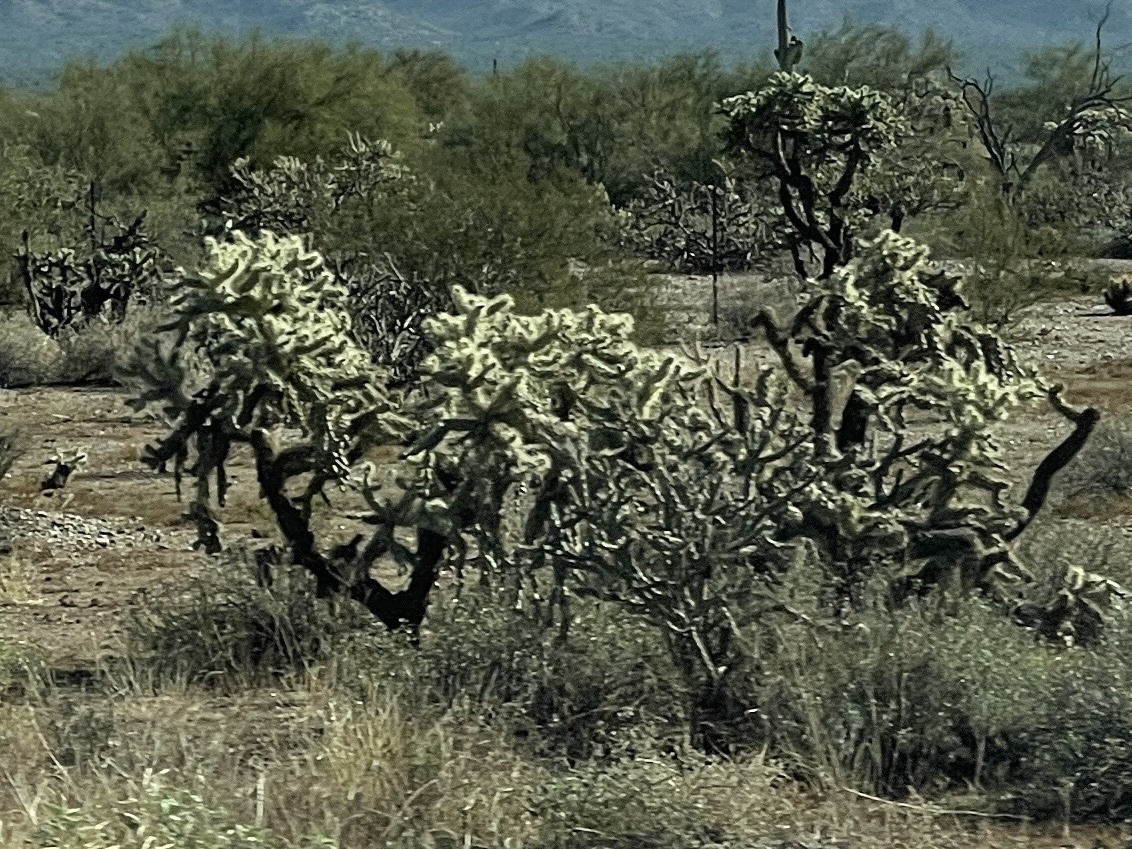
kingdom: Plantae
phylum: Tracheophyta
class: Magnoliopsida
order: Caryophyllales
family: Cactaceae
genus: Cylindropuntia
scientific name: Cylindropuntia fulgida
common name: Jumping cholla
